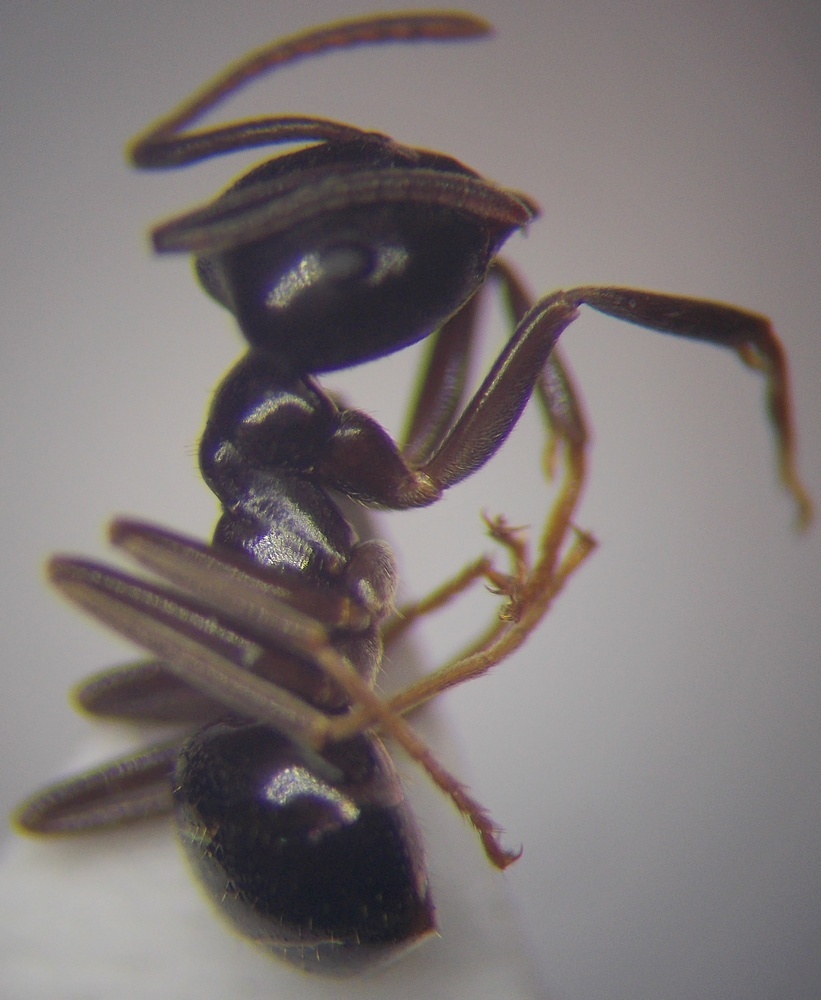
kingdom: Animalia
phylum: Arthropoda
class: Insecta
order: Hymenoptera
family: Formicidae
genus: Lasius
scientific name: Lasius fuliginosus
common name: Jet ant
